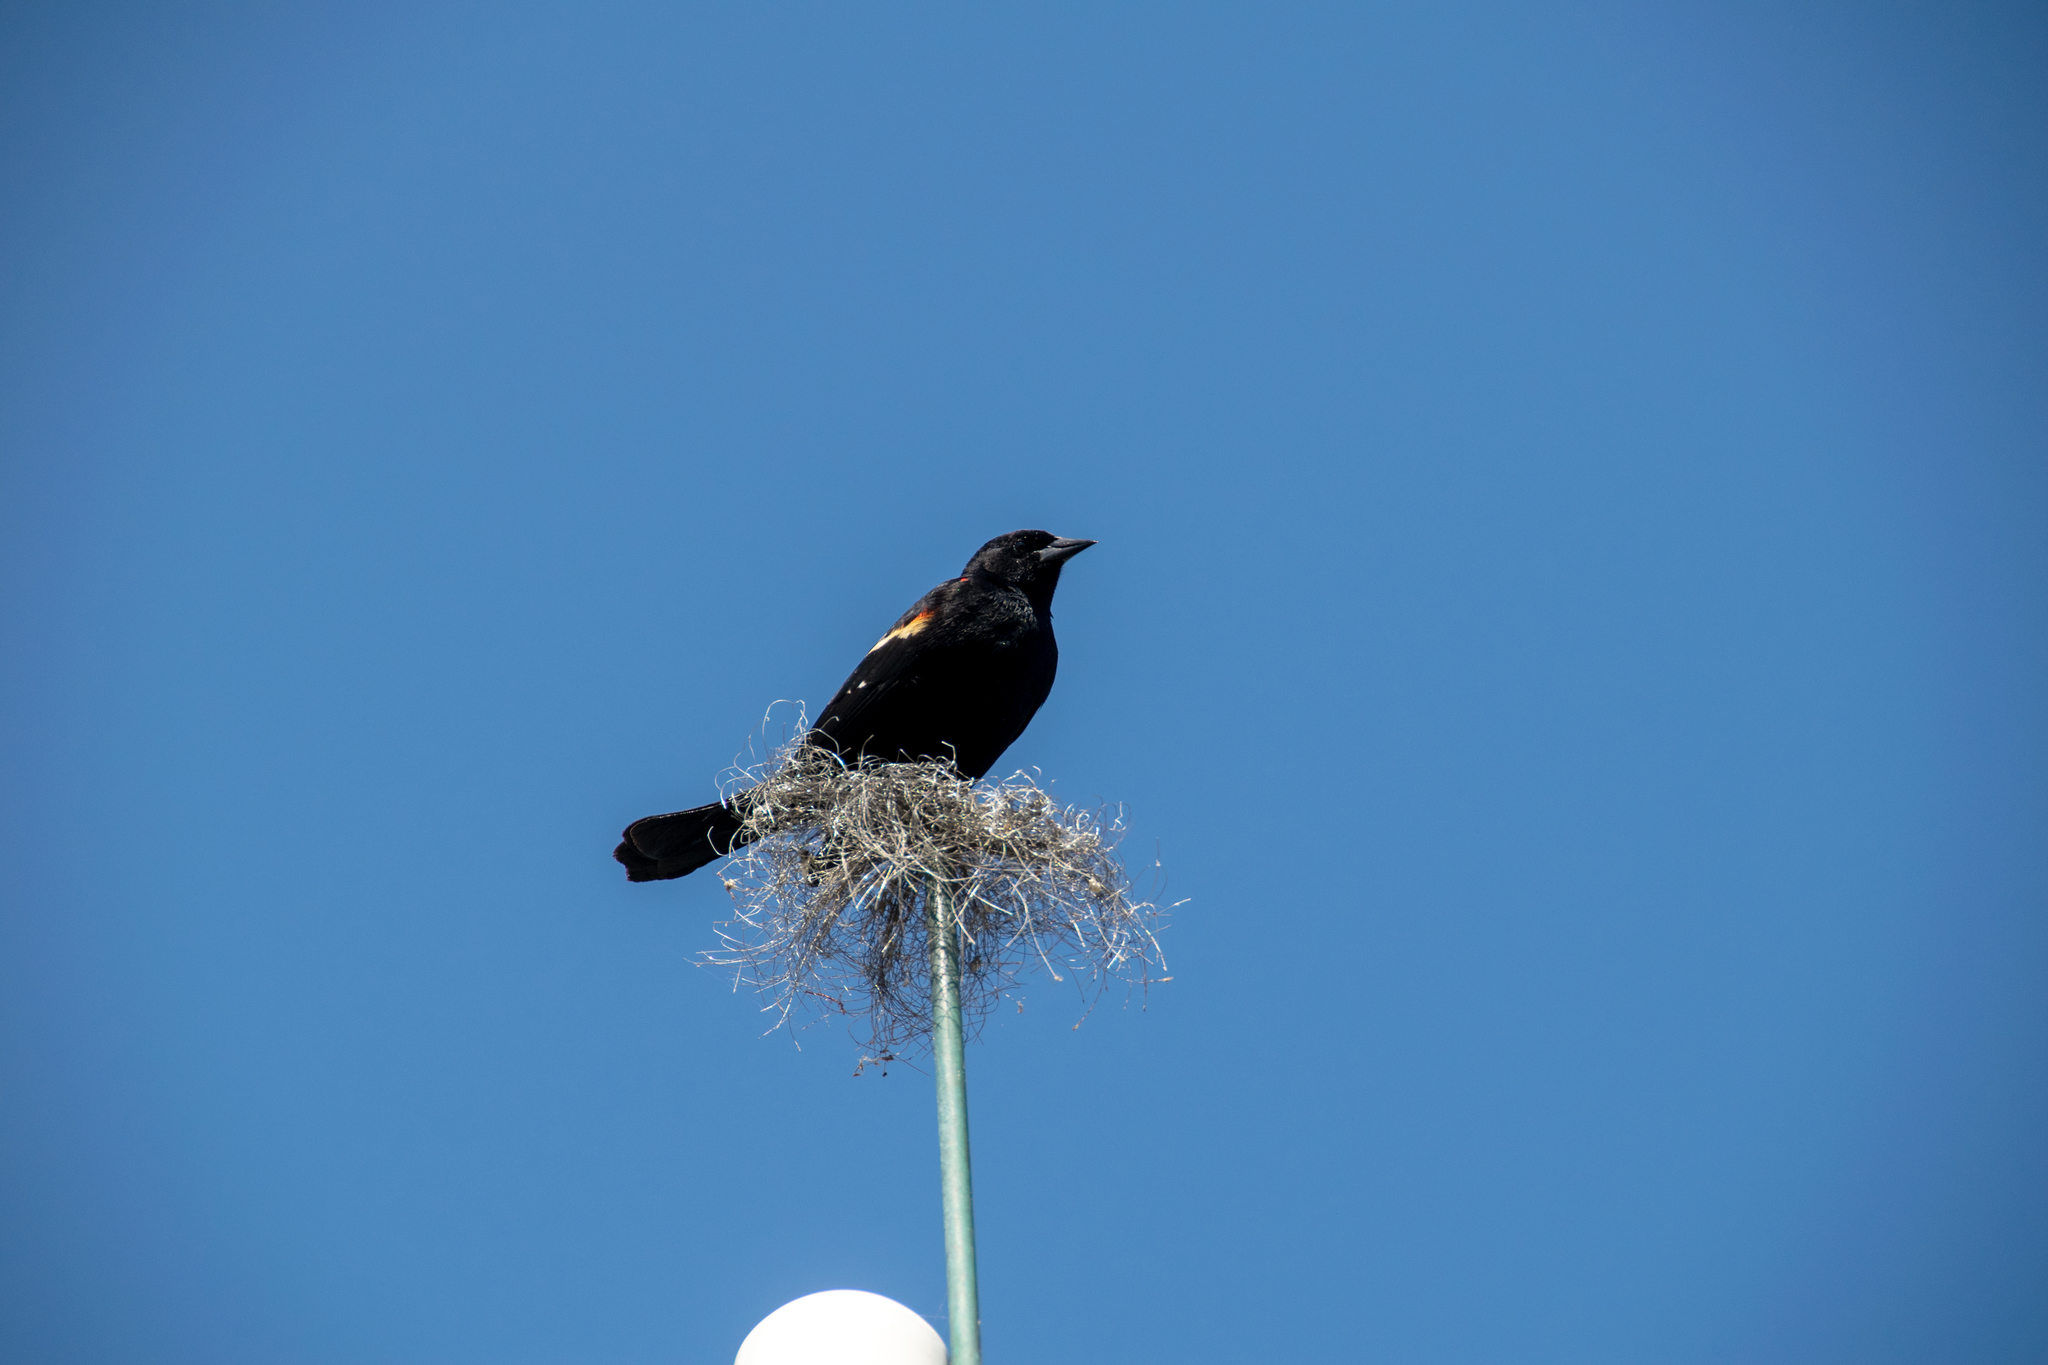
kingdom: Animalia
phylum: Chordata
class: Aves
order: Passeriformes
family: Icteridae
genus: Agelaius
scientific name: Agelaius phoeniceus
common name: Red-winged blackbird
